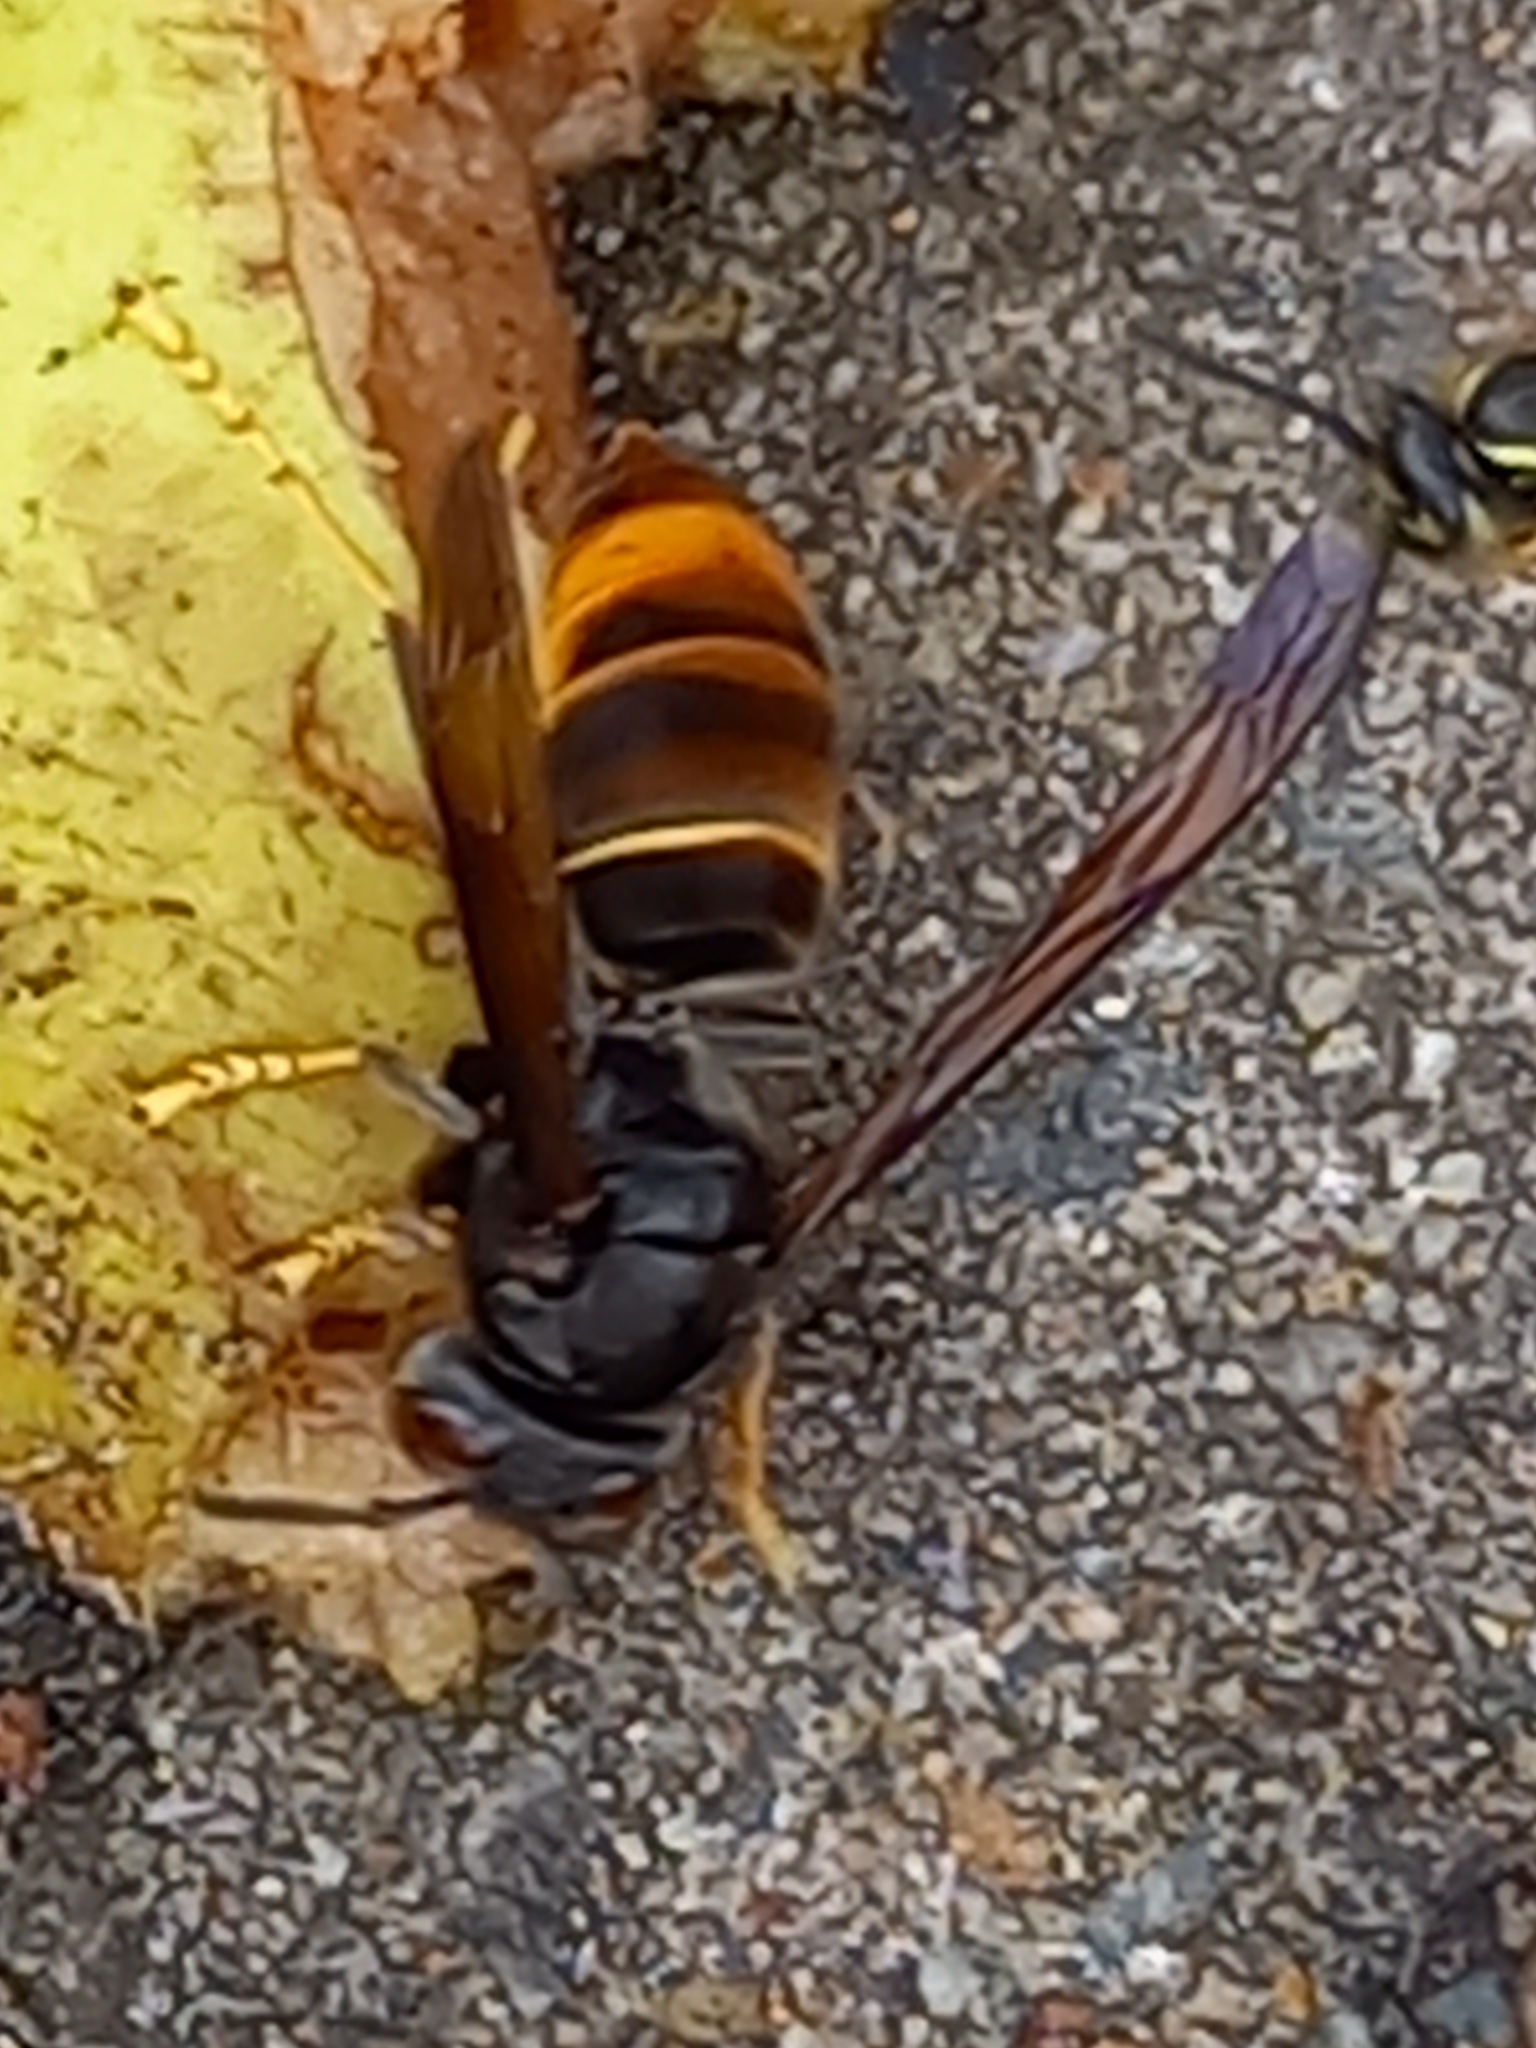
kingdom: Animalia
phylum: Arthropoda
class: Insecta
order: Hymenoptera
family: Vespidae
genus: Vespa
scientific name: Vespa velutina
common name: Asian hornet
